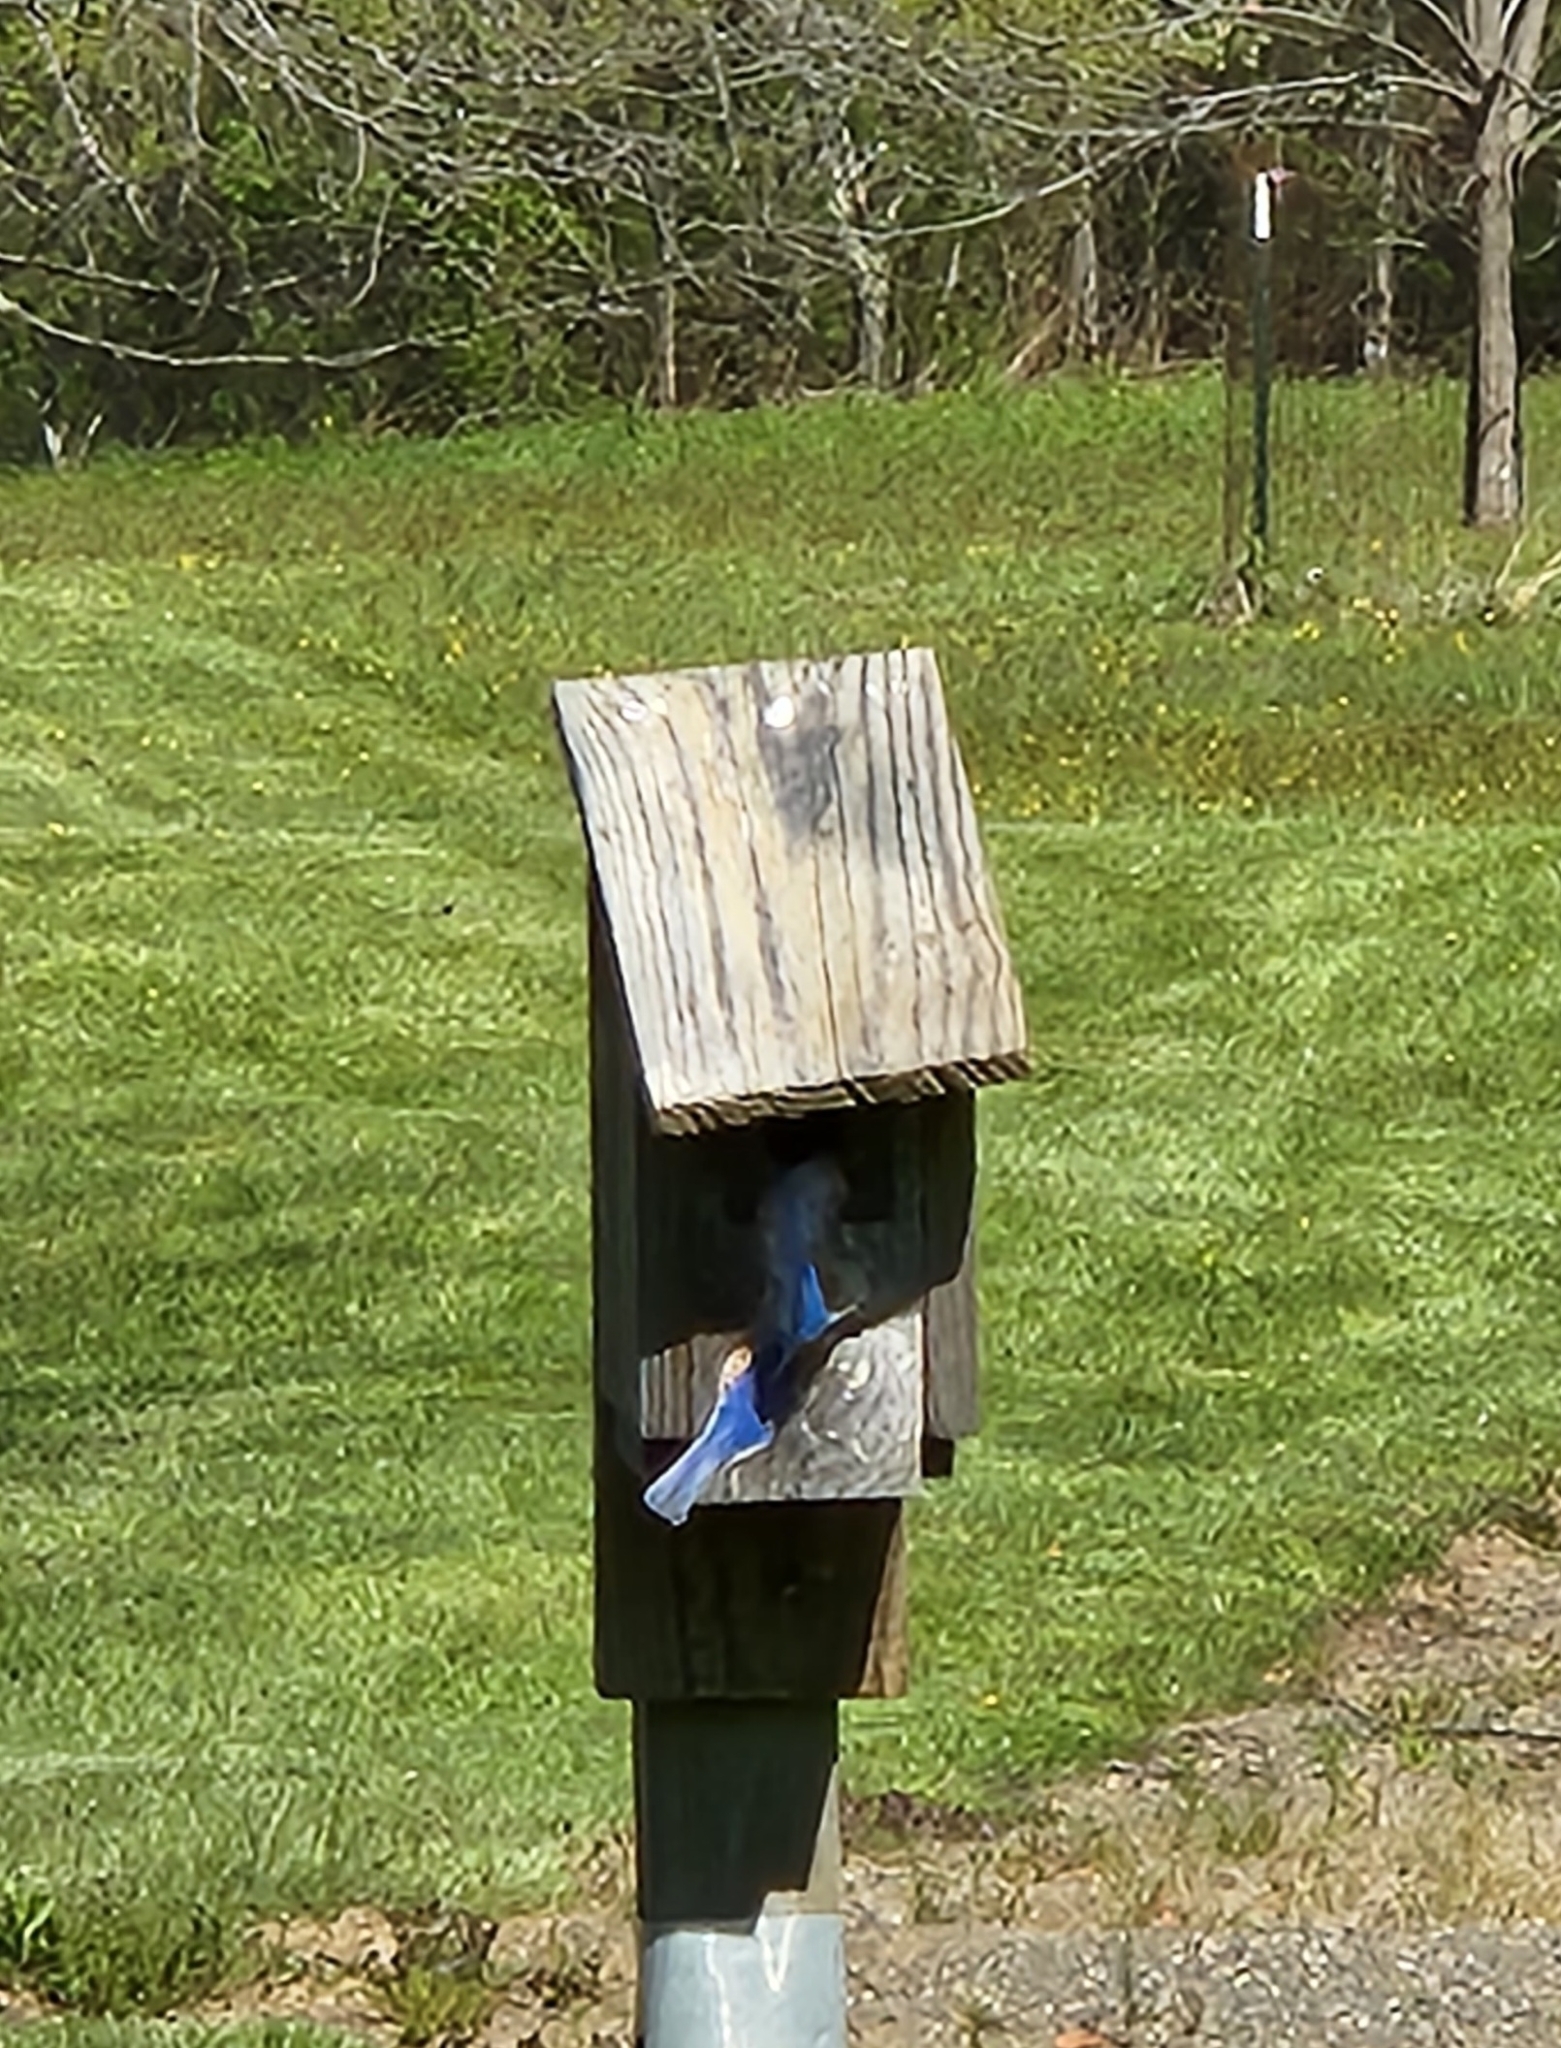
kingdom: Animalia
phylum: Chordata
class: Aves
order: Passeriformes
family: Turdidae
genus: Sialia
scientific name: Sialia sialis
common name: Eastern bluebird
